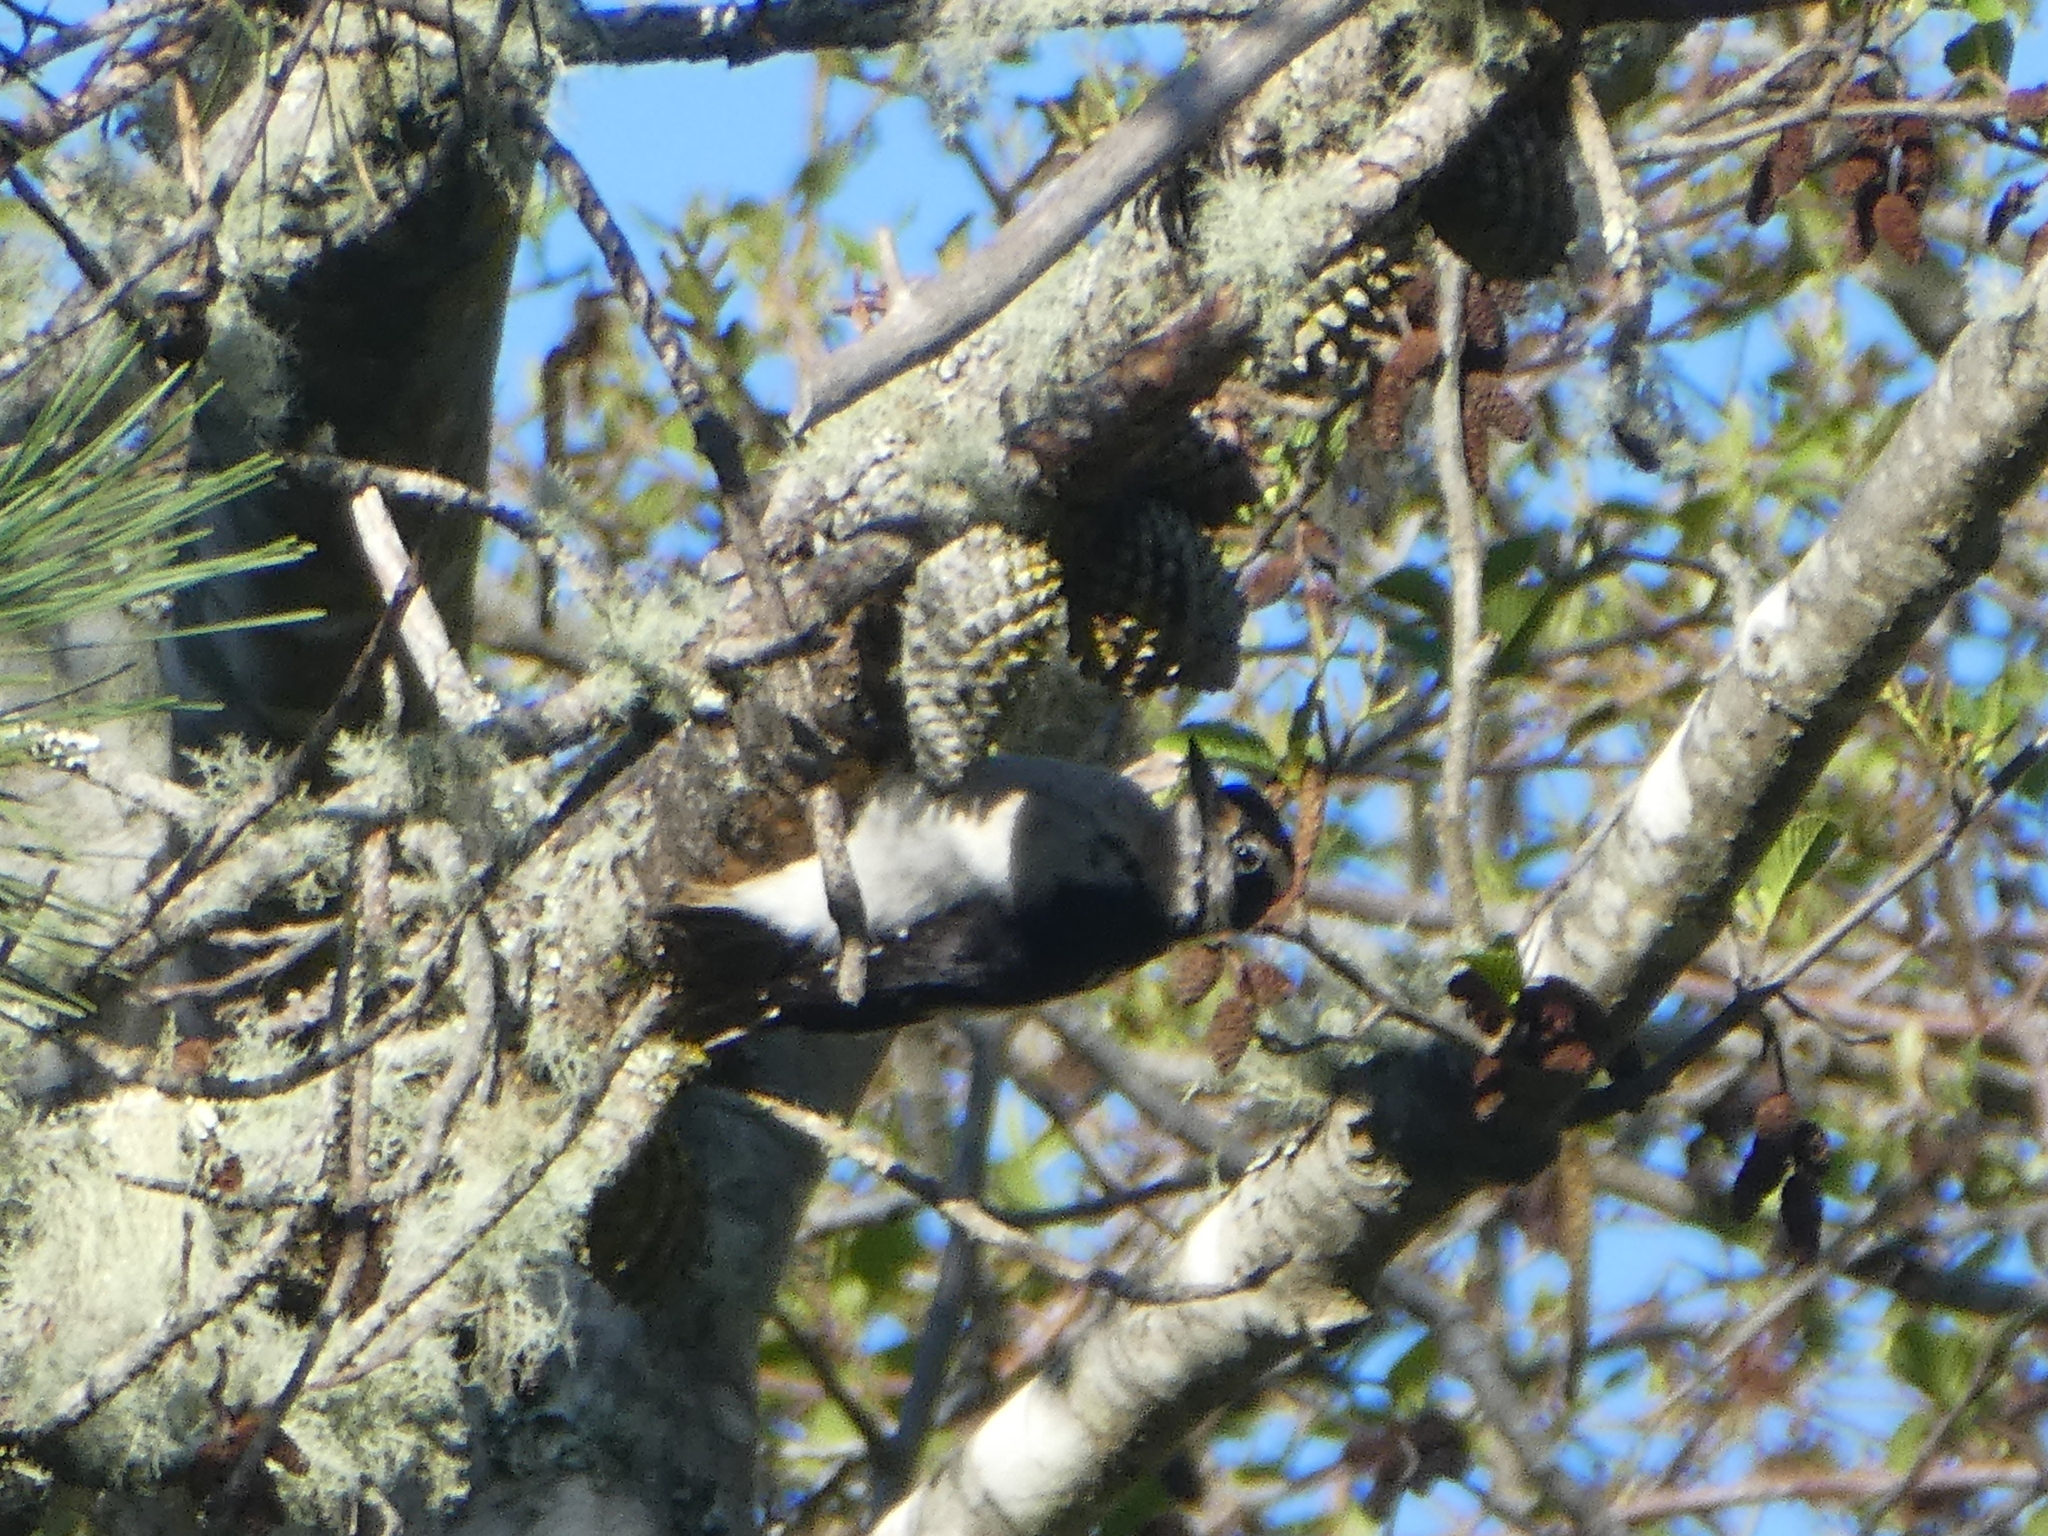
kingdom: Animalia
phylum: Chordata
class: Aves
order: Piciformes
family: Picidae
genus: Leuconotopicus
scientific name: Leuconotopicus villosus
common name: Hairy woodpecker
